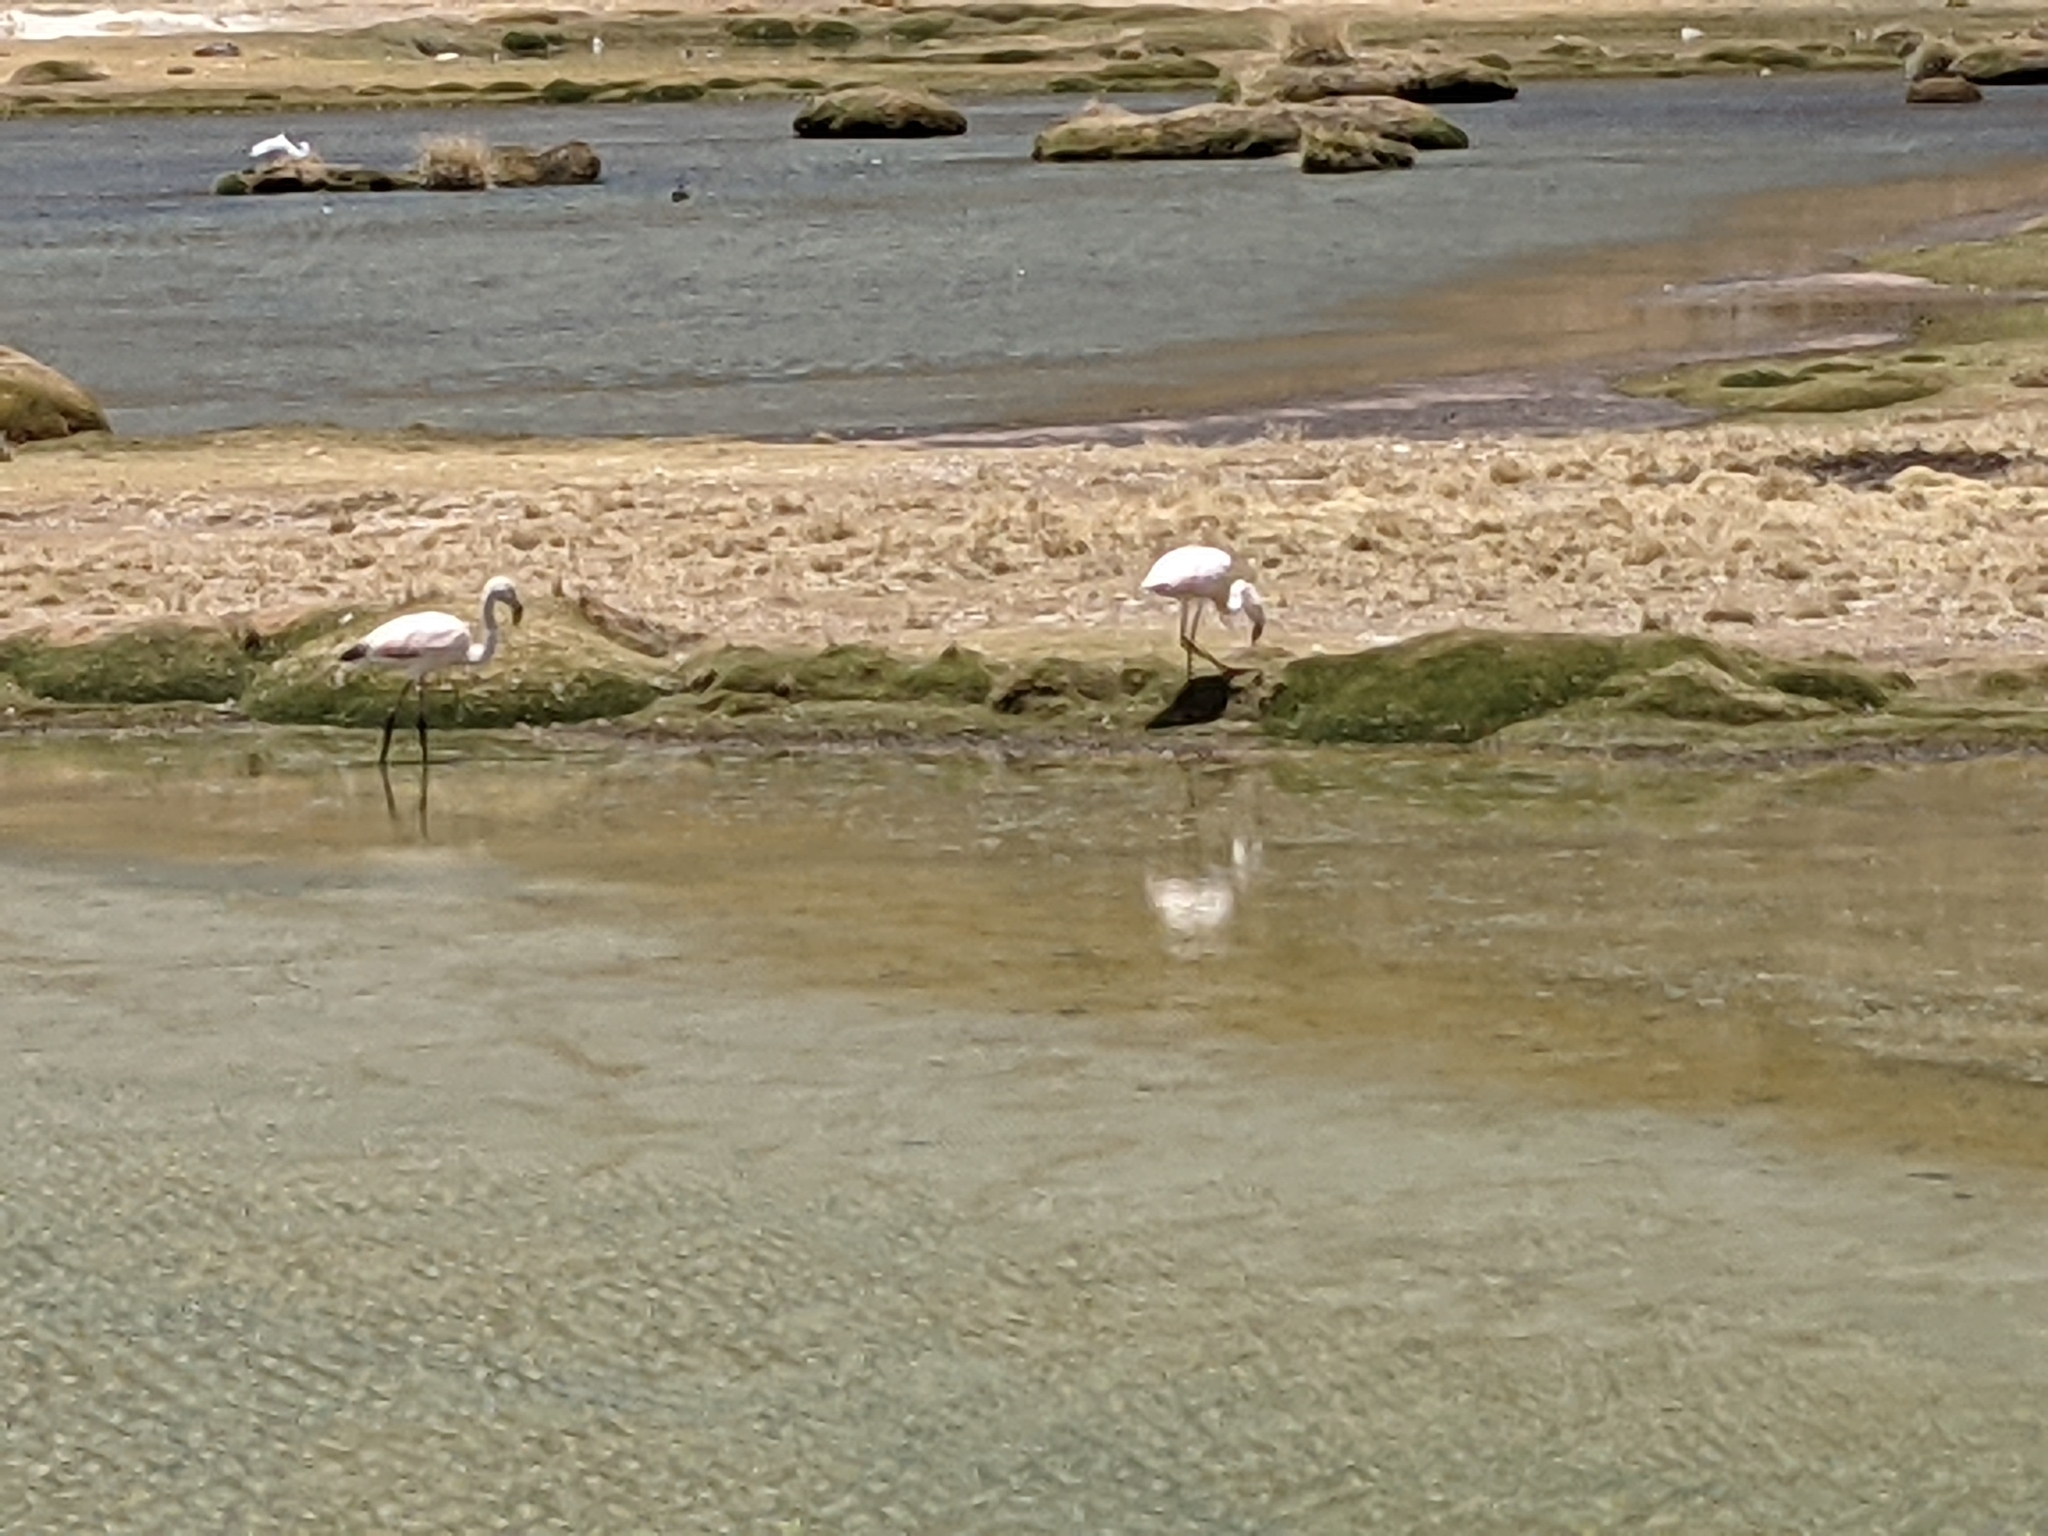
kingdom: Animalia
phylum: Chordata
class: Aves
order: Phoenicopteriformes
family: Phoenicopteridae
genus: Phoenicopterus
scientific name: Phoenicopterus chilensis
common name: Chilean flamingo
